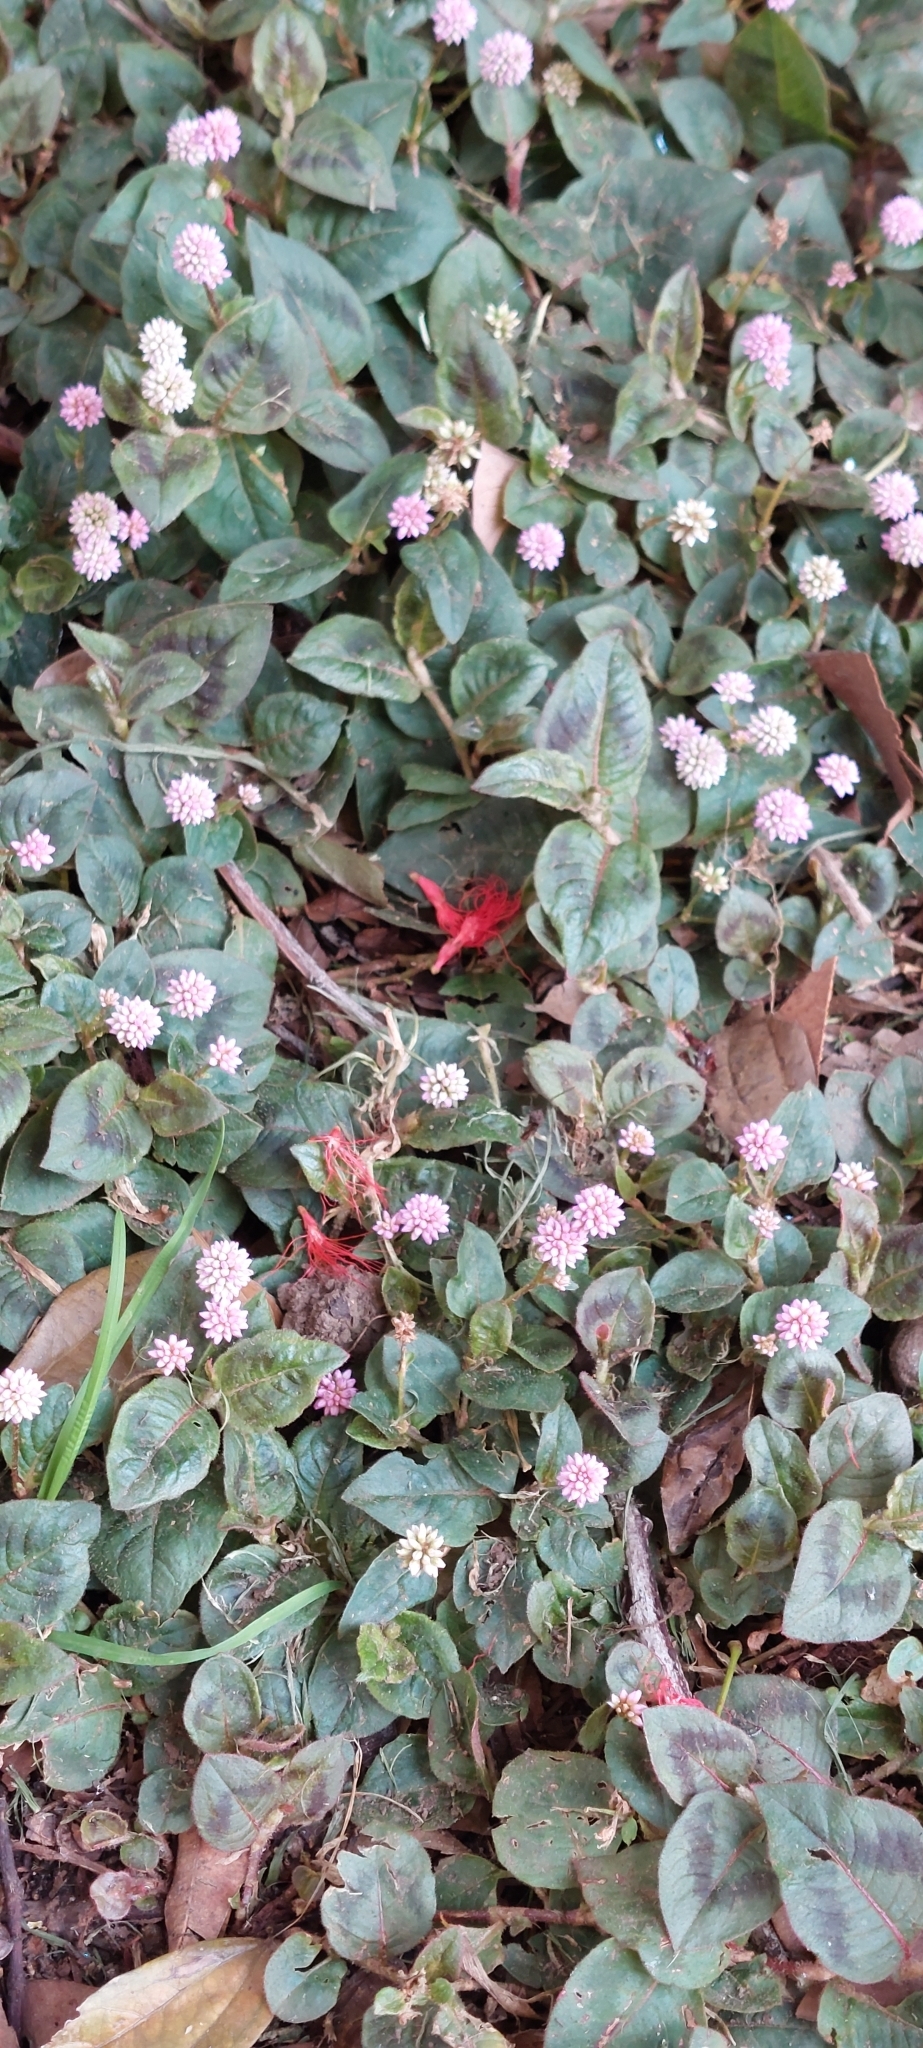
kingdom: Plantae
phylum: Tracheophyta
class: Magnoliopsida
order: Caryophyllales
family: Polygonaceae
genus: Persicaria
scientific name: Persicaria capitata
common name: Pinkhead smartweed
